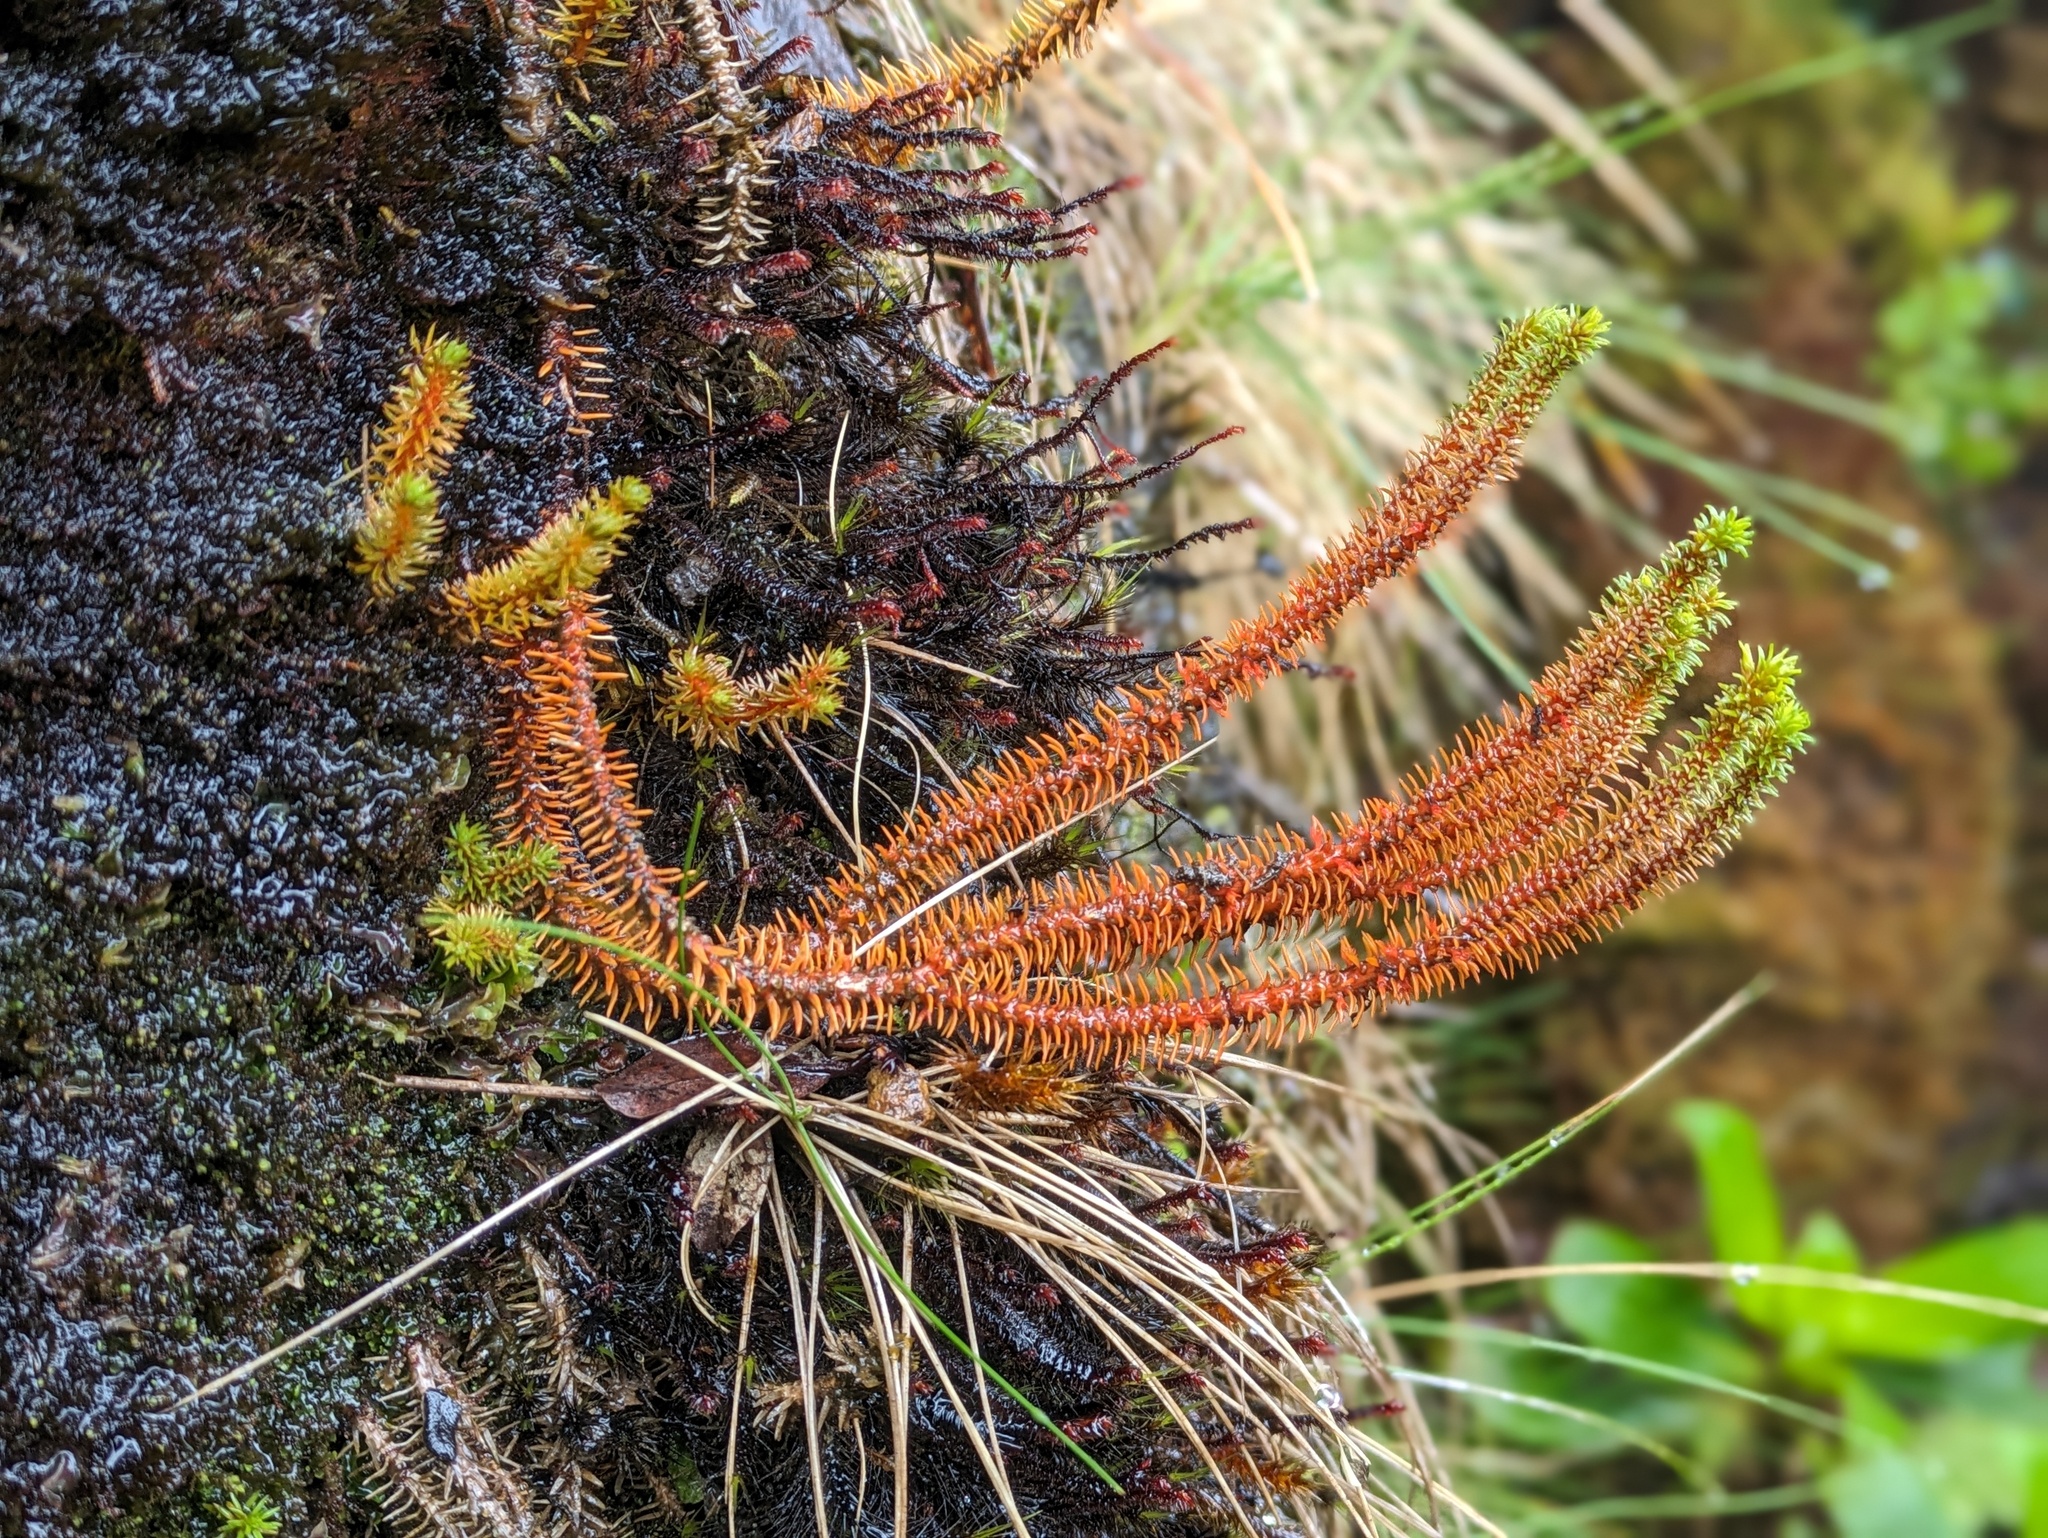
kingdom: Plantae
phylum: Tracheophyta
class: Lycopodiopsida
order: Lycopodiales
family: Lycopodiaceae
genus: Huperzia
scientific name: Huperzia erubescens
